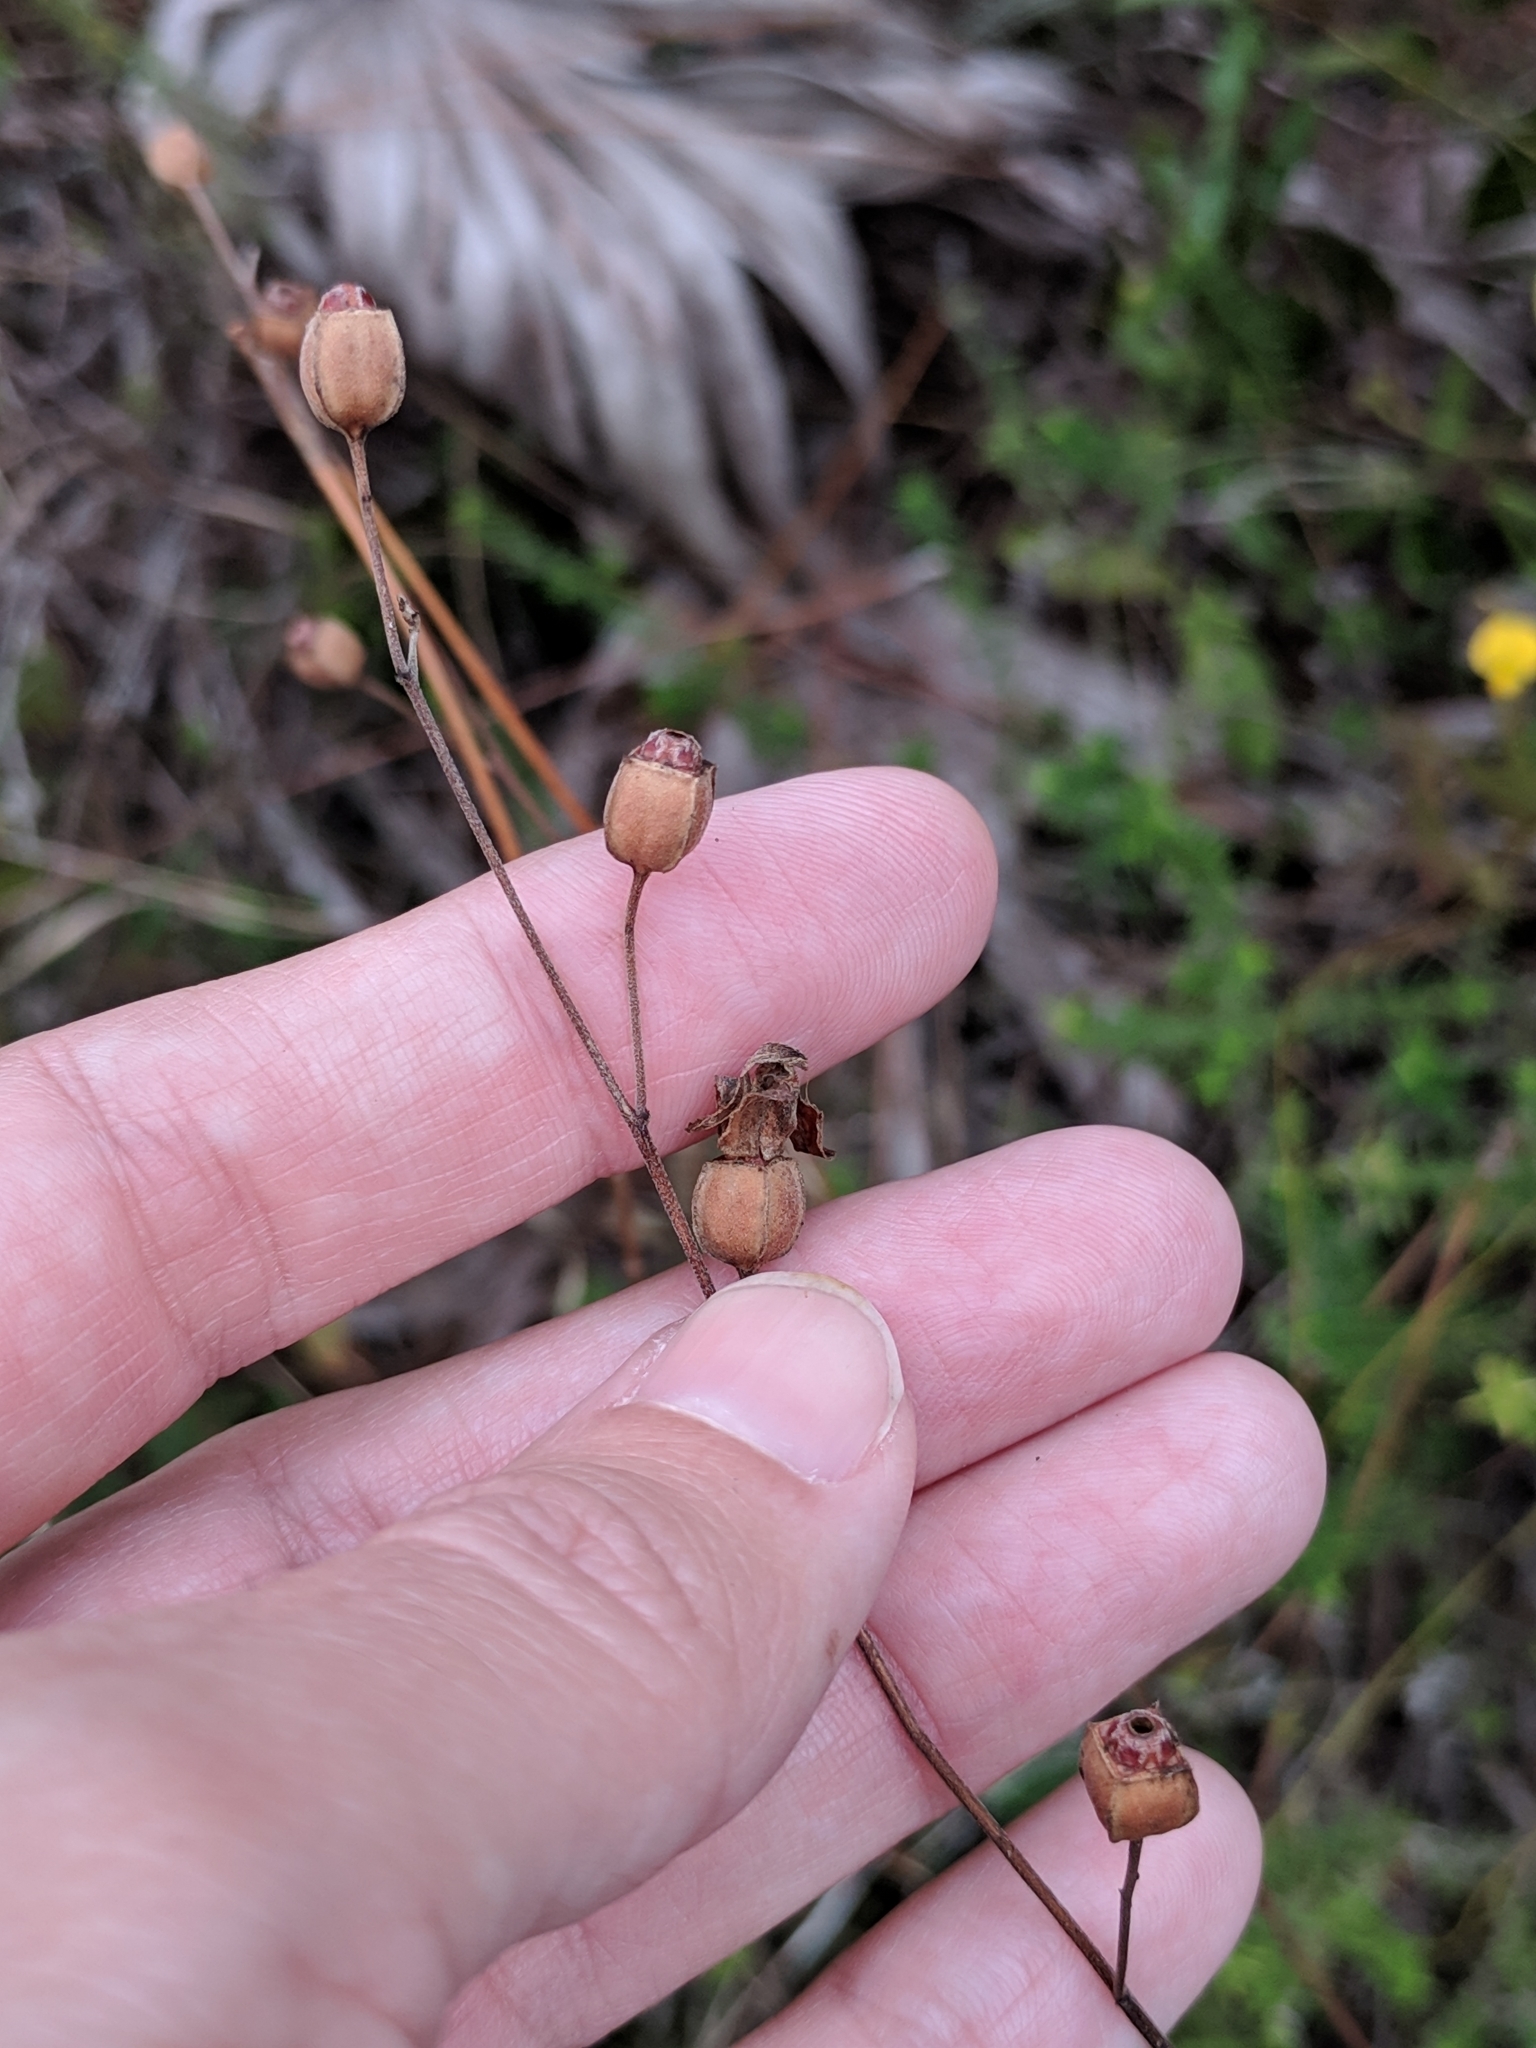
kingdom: Plantae
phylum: Tracheophyta
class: Magnoliopsida
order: Myrtales
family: Onagraceae
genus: Ludwigia
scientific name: Ludwigia maritima
